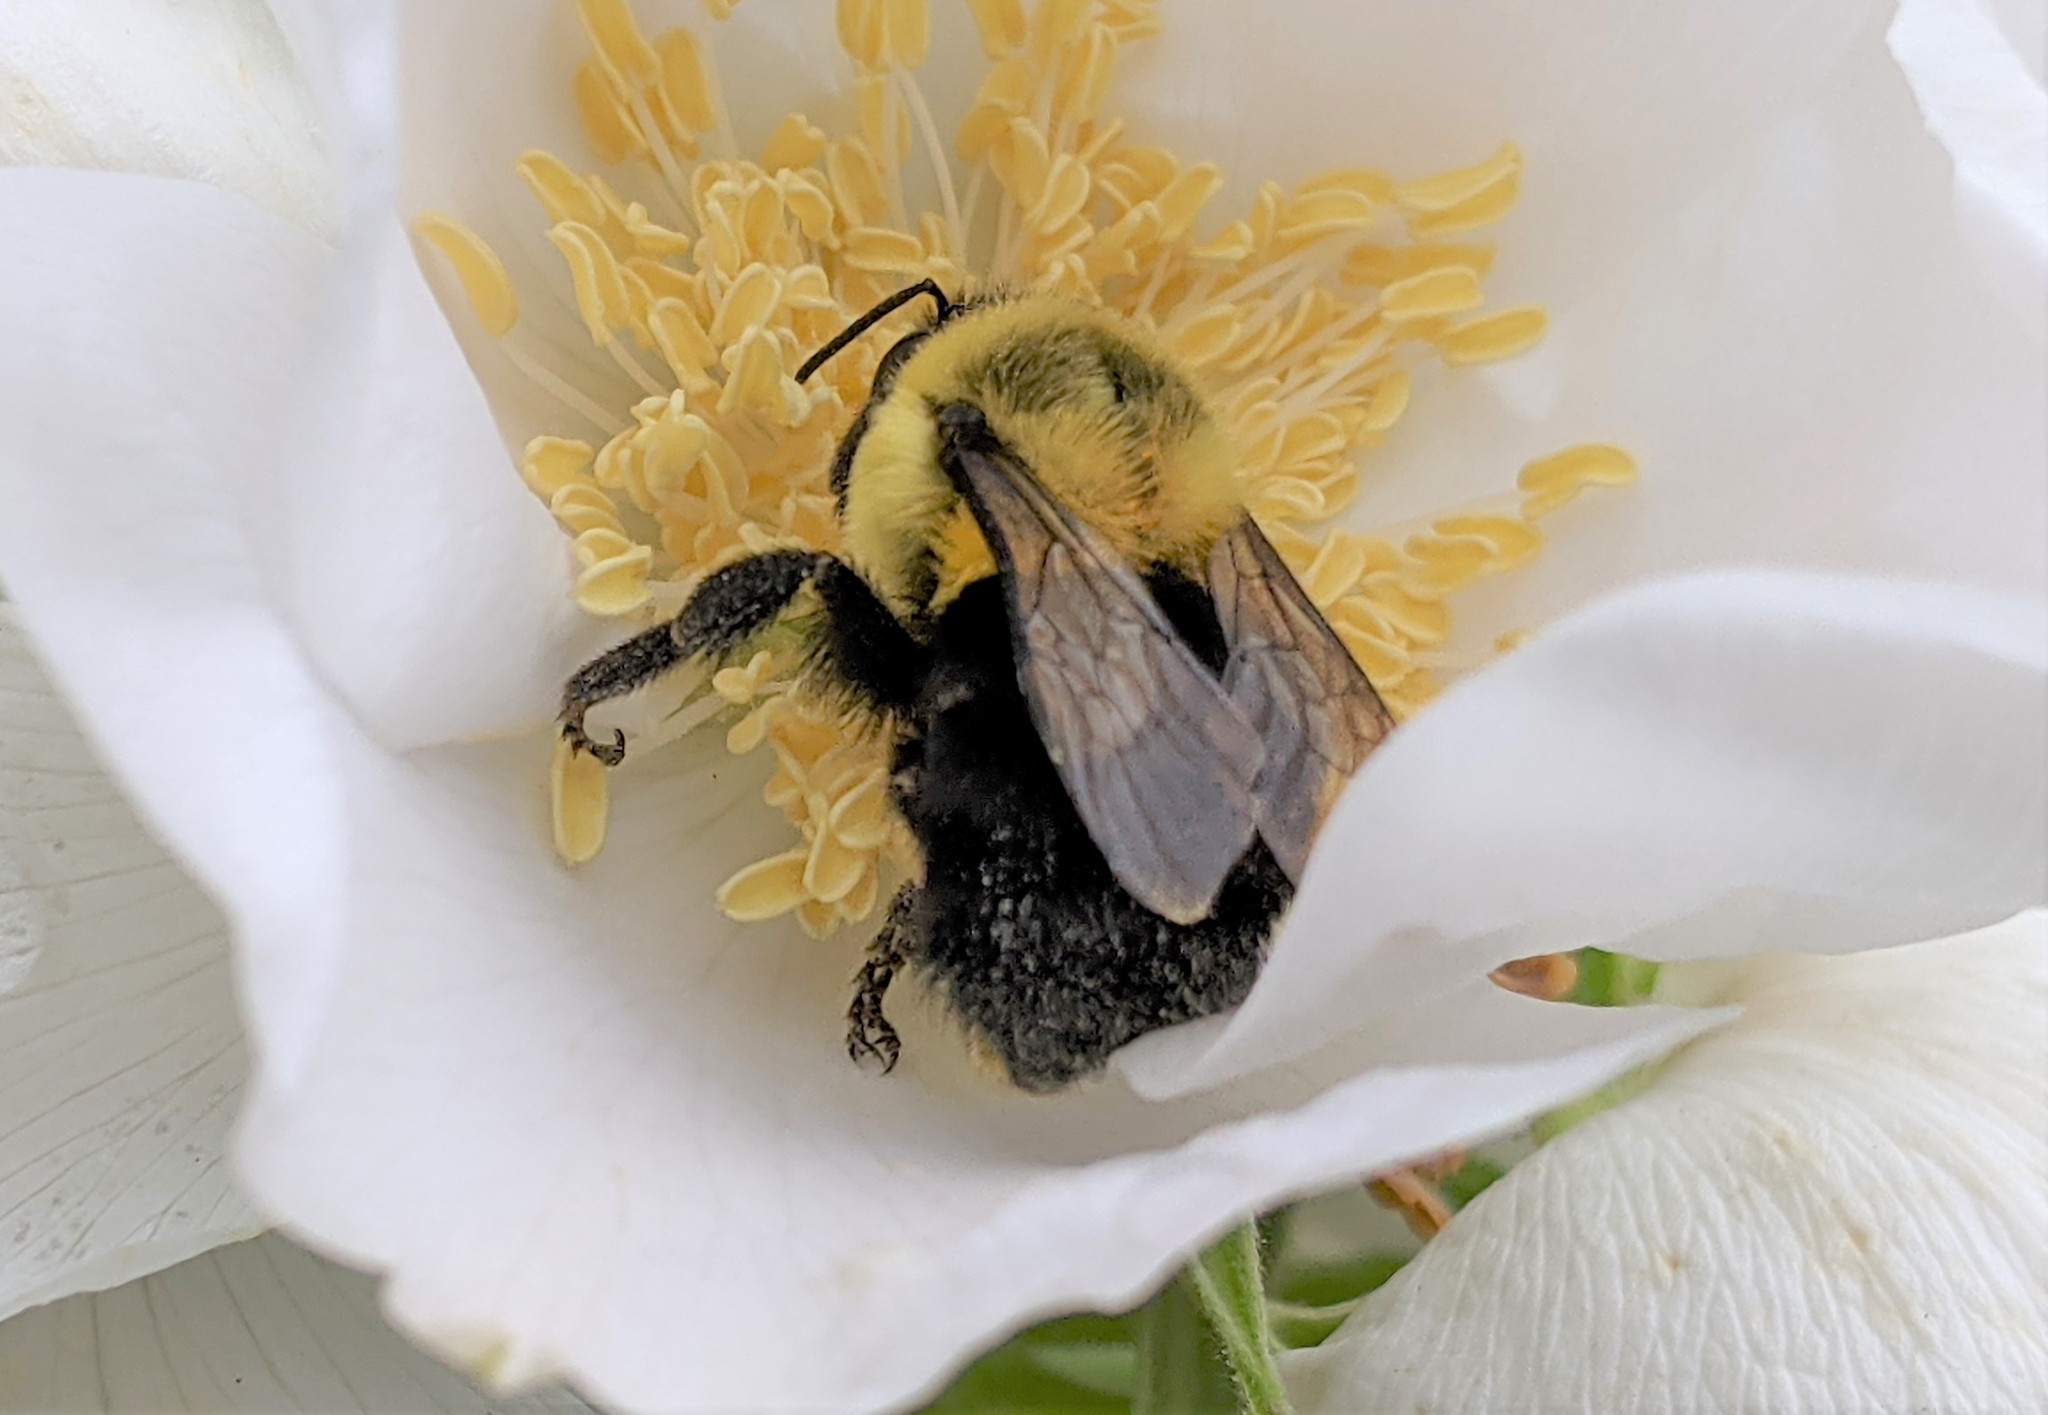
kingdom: Animalia
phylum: Arthropoda
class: Insecta
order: Hymenoptera
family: Apidae
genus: Bombus
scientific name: Bombus impatiens
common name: Common eastern bumble bee
